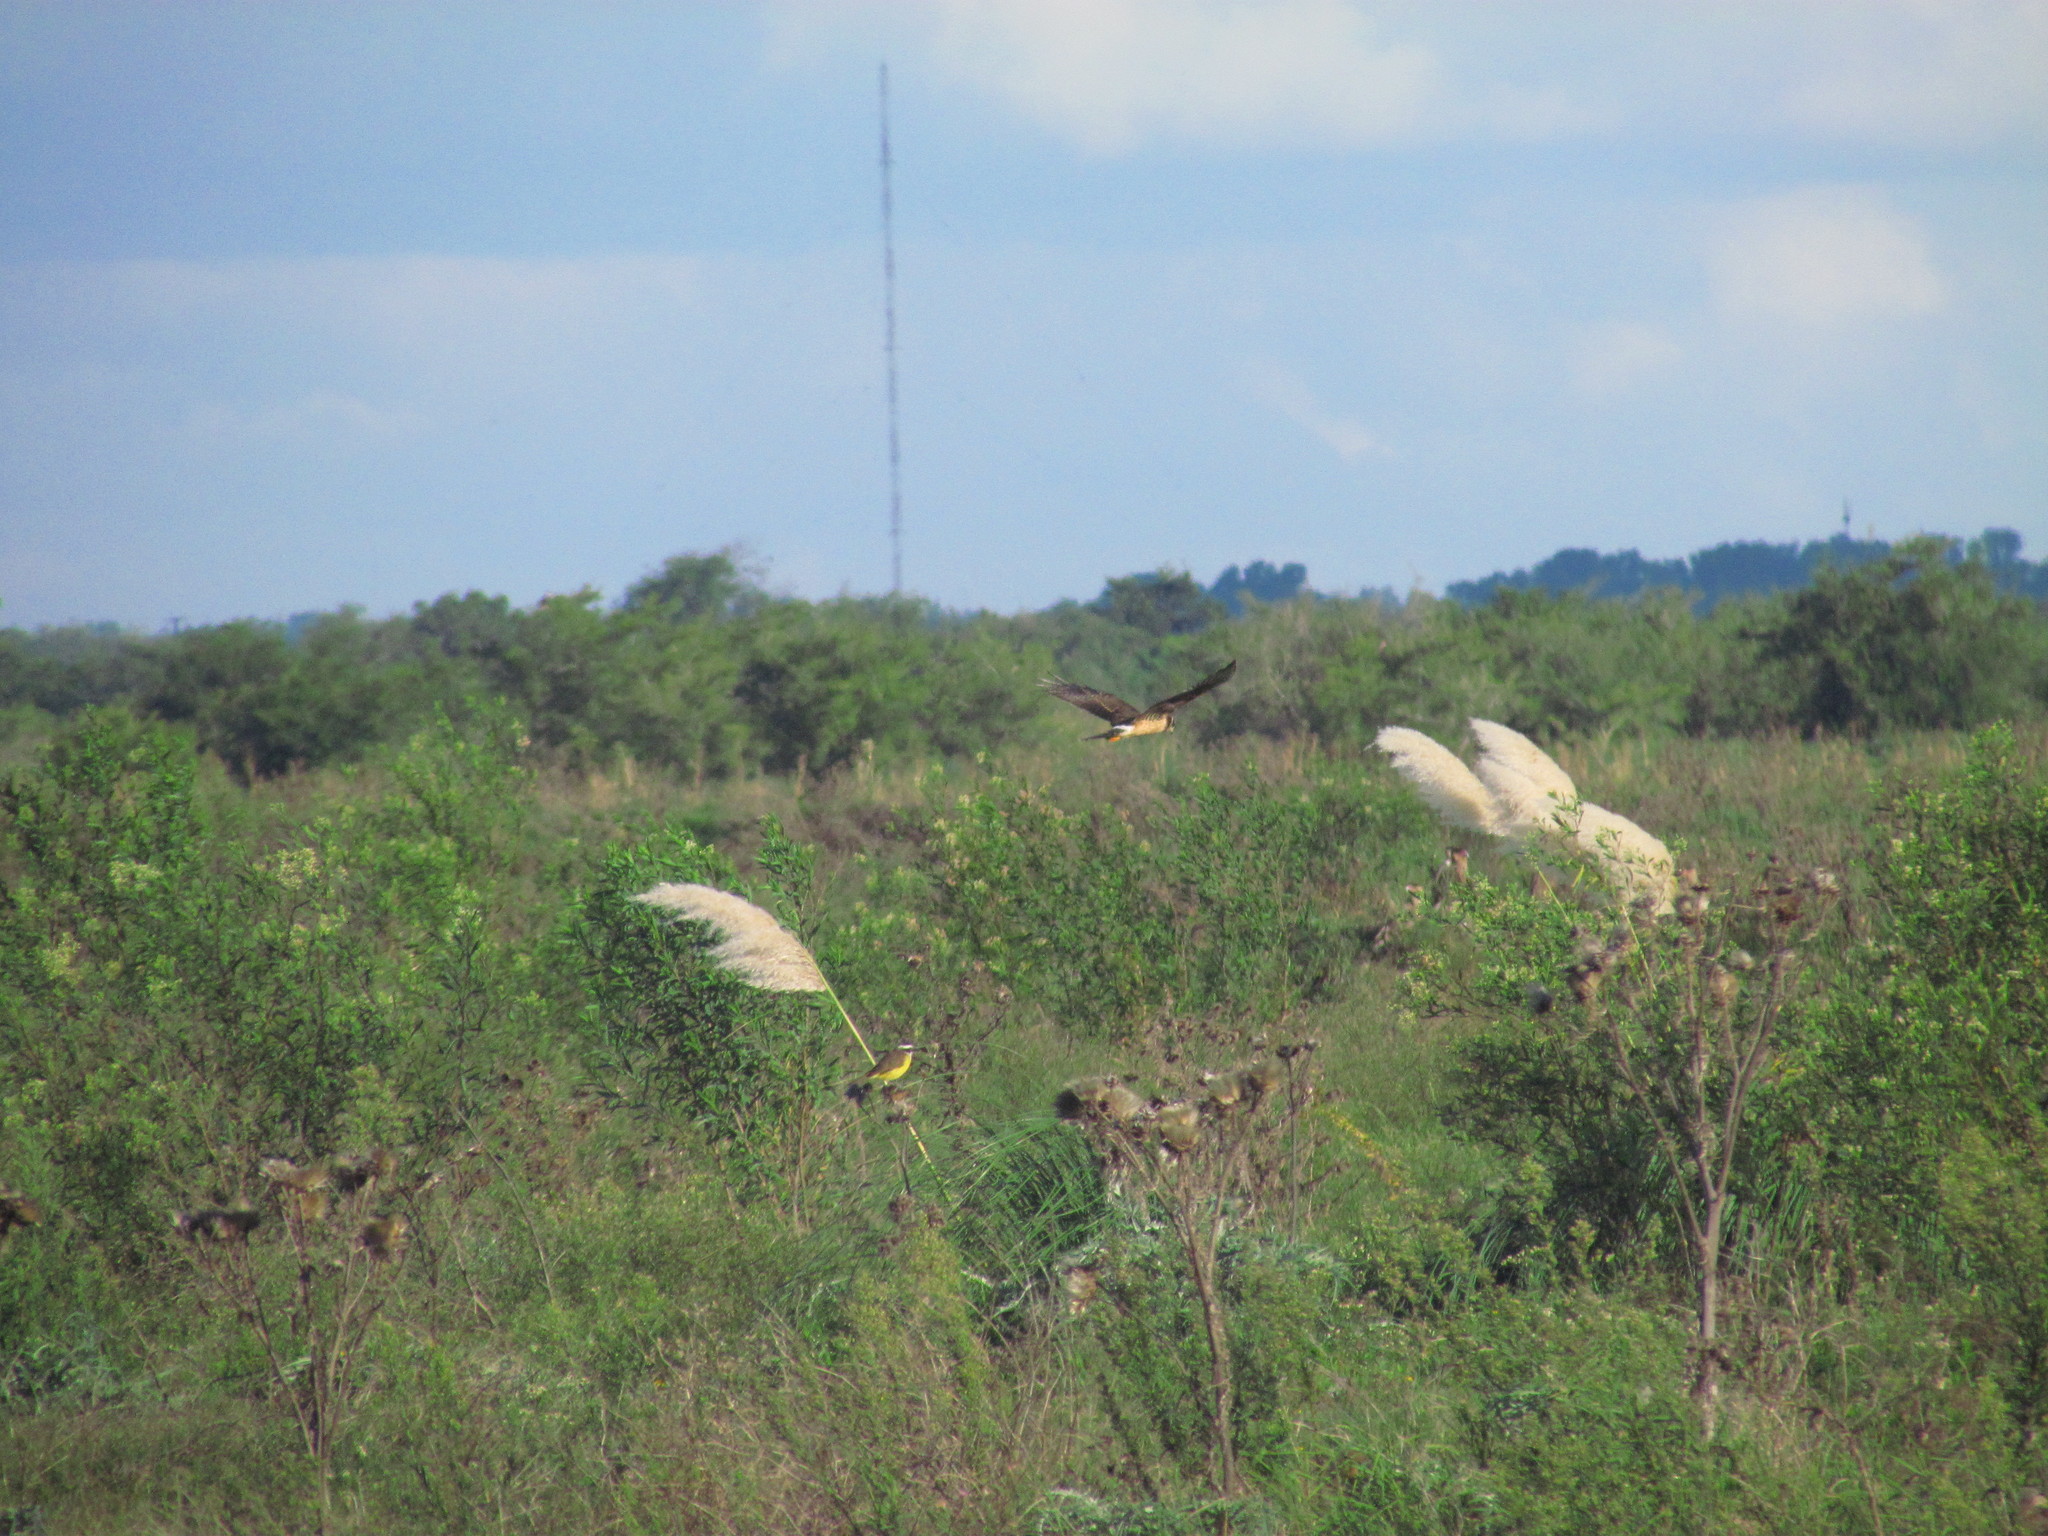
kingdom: Animalia
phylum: Chordata
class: Aves
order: Accipitriformes
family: Accipitridae
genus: Circus
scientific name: Circus buffoni
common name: Long-winged harrier
